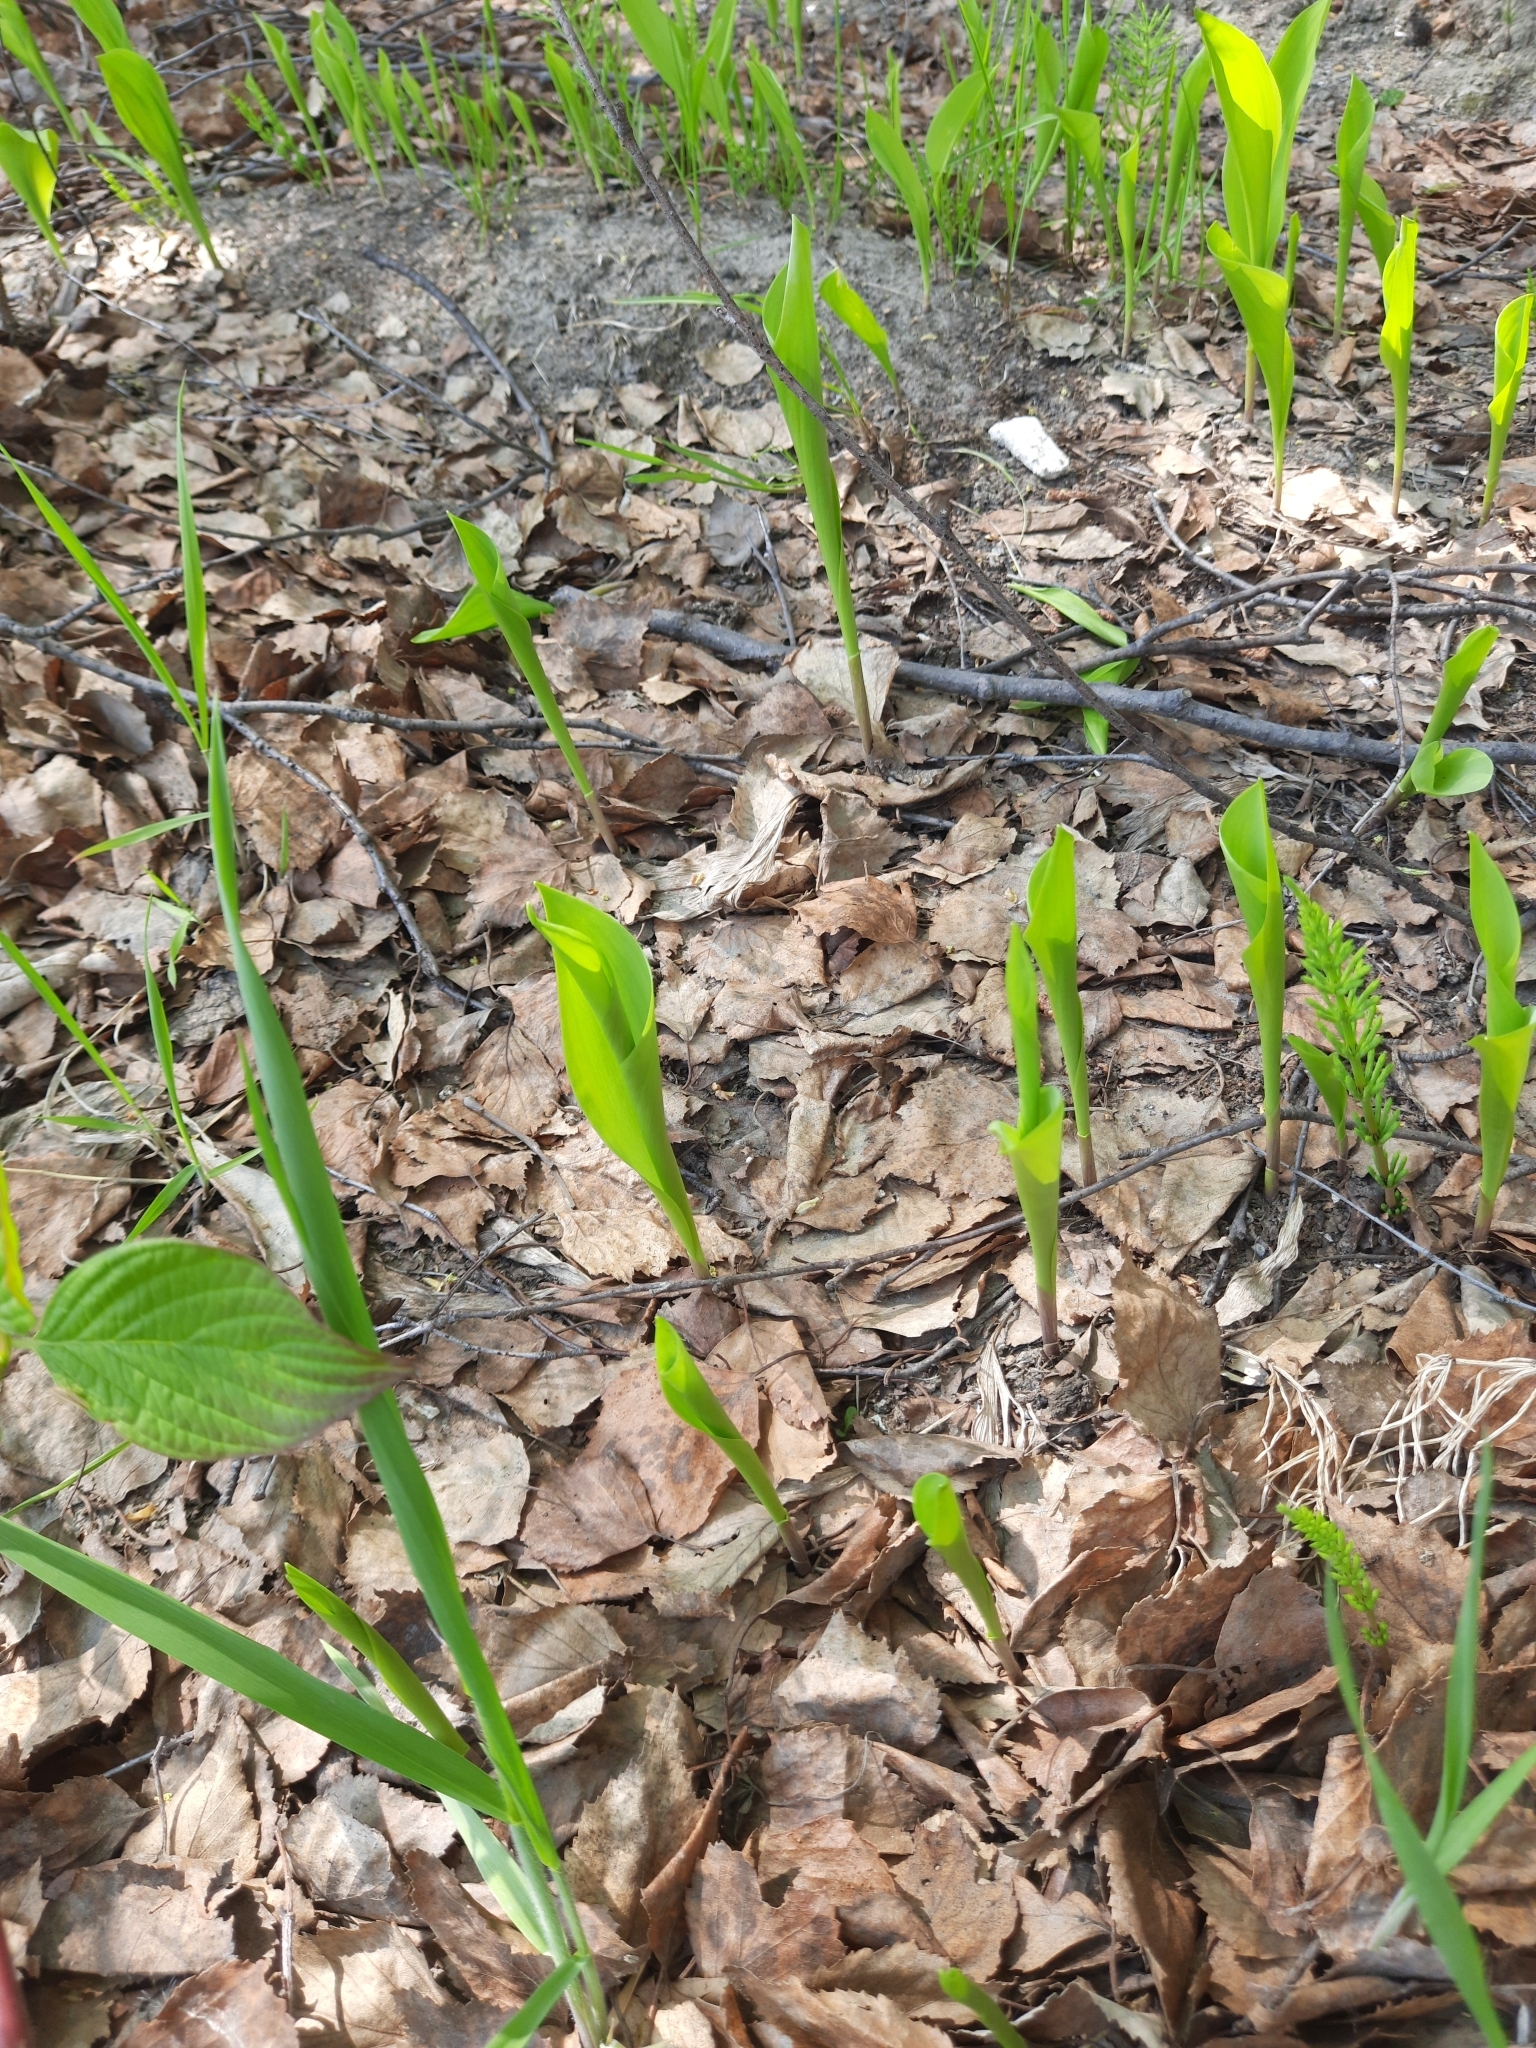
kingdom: Plantae
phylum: Tracheophyta
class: Liliopsida
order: Asparagales
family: Asparagaceae
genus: Convallaria
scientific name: Convallaria majalis
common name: Lily-of-the-valley
